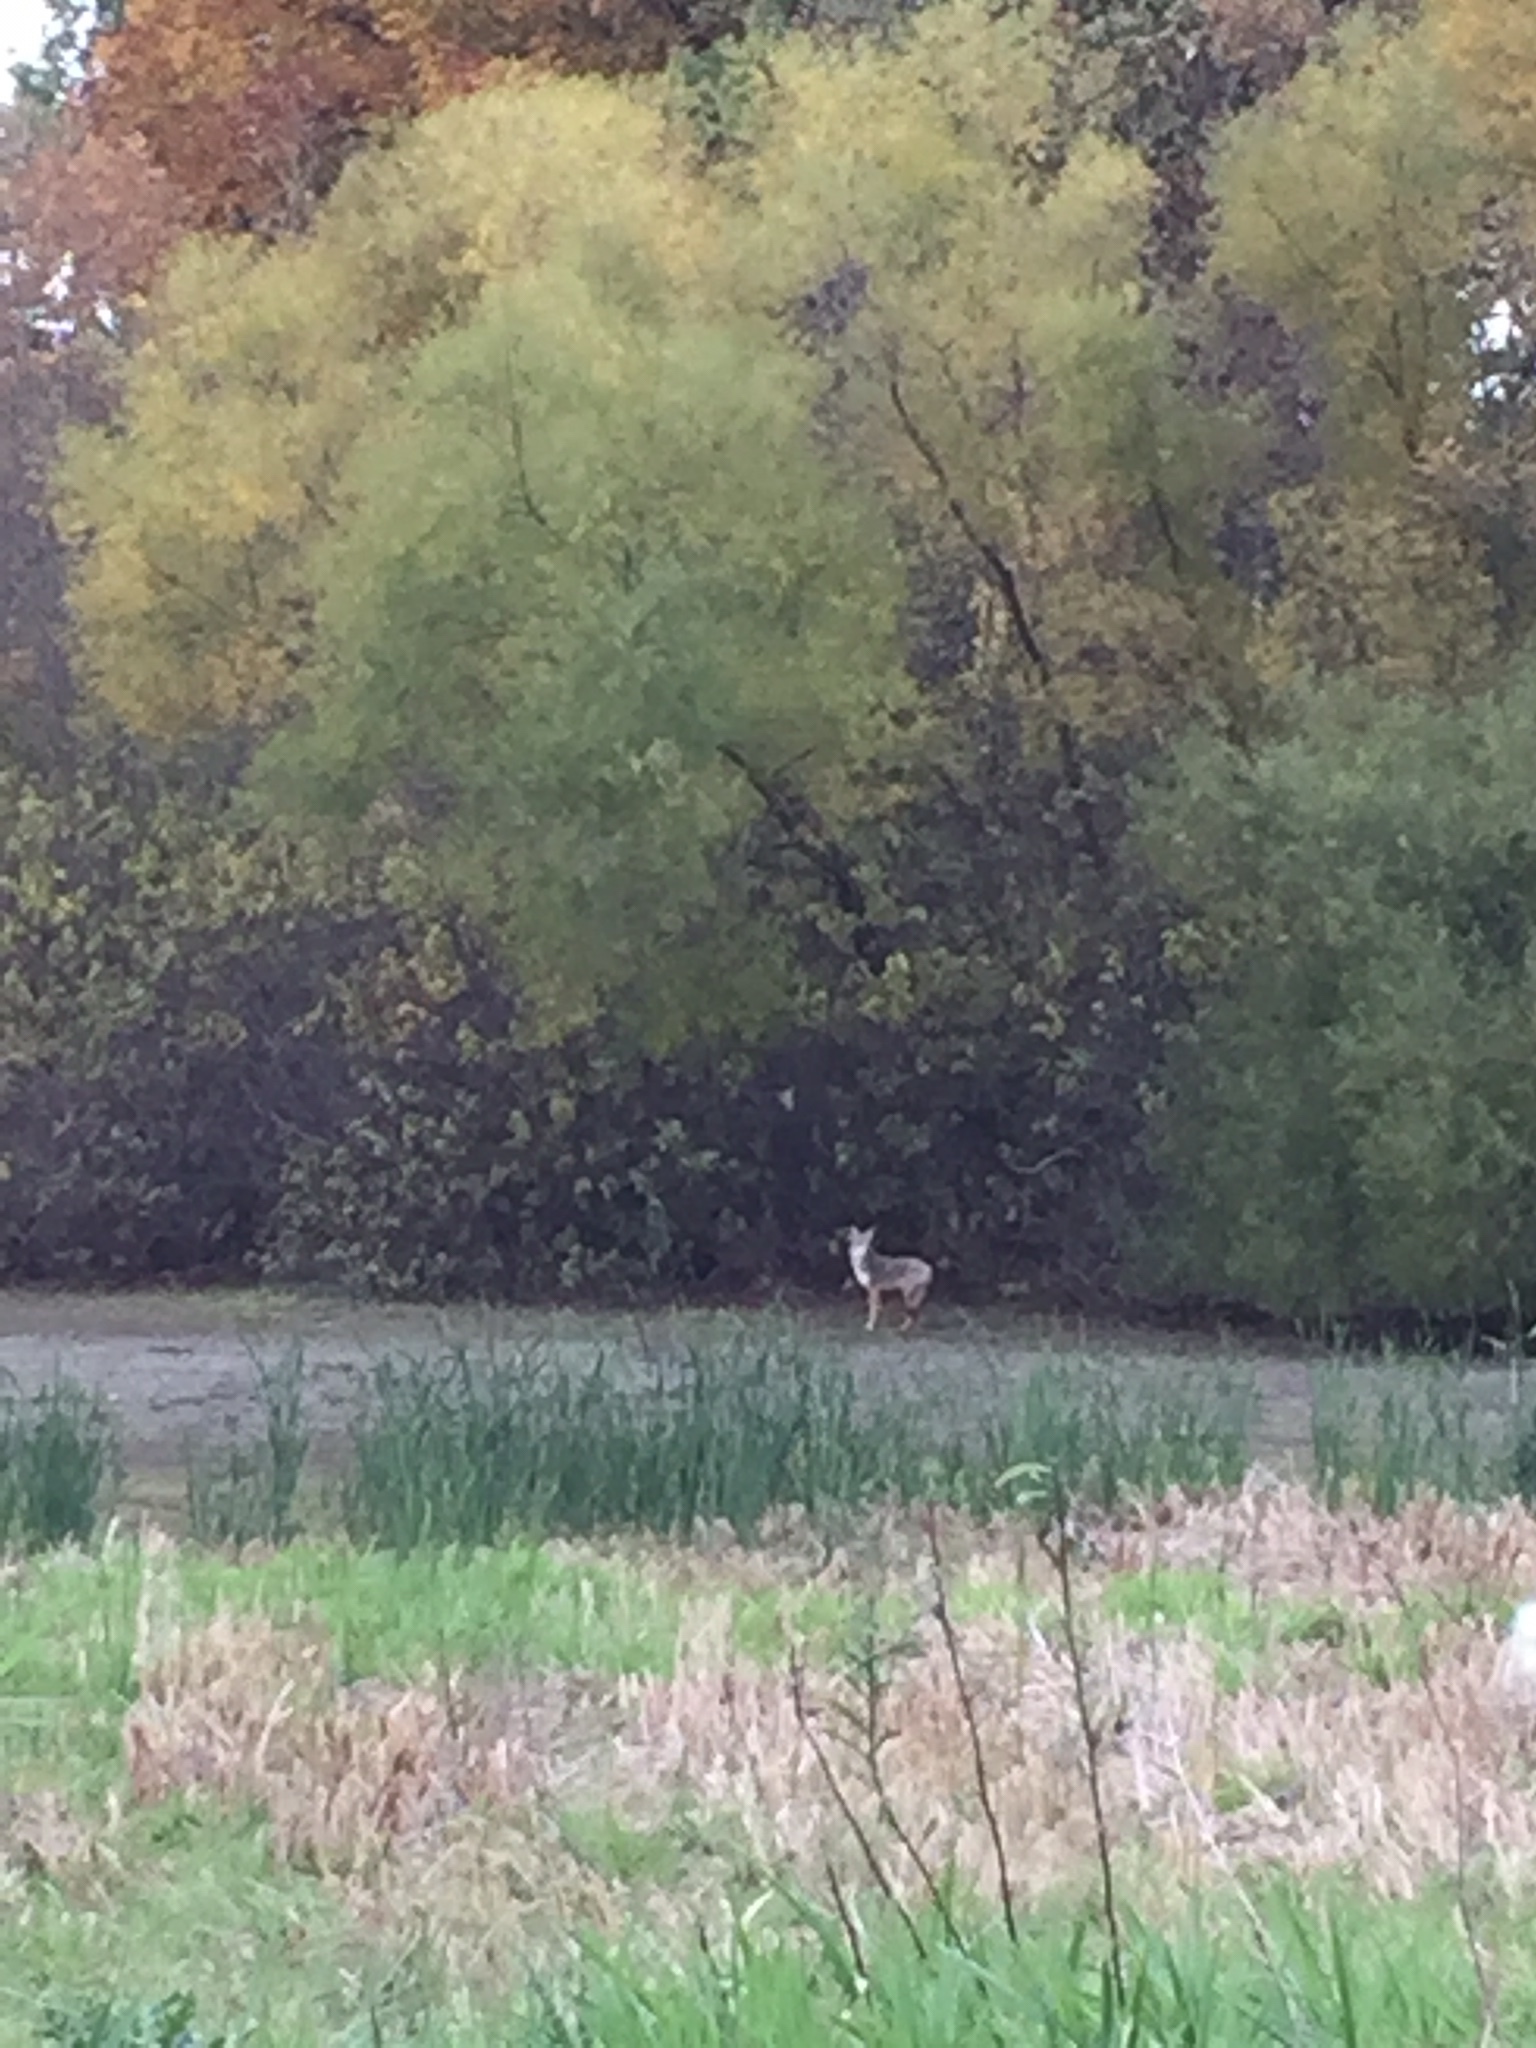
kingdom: Animalia
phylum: Chordata
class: Mammalia
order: Carnivora
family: Canidae
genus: Canis
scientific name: Canis latrans
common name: Coyote
